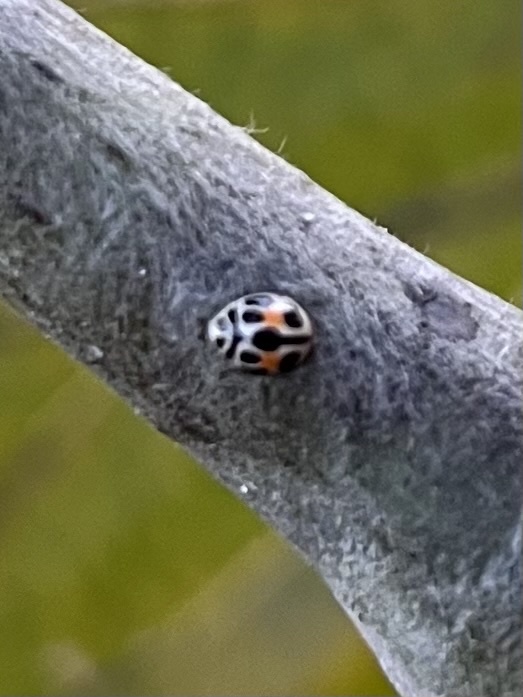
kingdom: Animalia
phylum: Arthropoda
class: Insecta
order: Coleoptera
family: Coccinellidae
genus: Tenuisvalvae
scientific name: Tenuisvalvae
